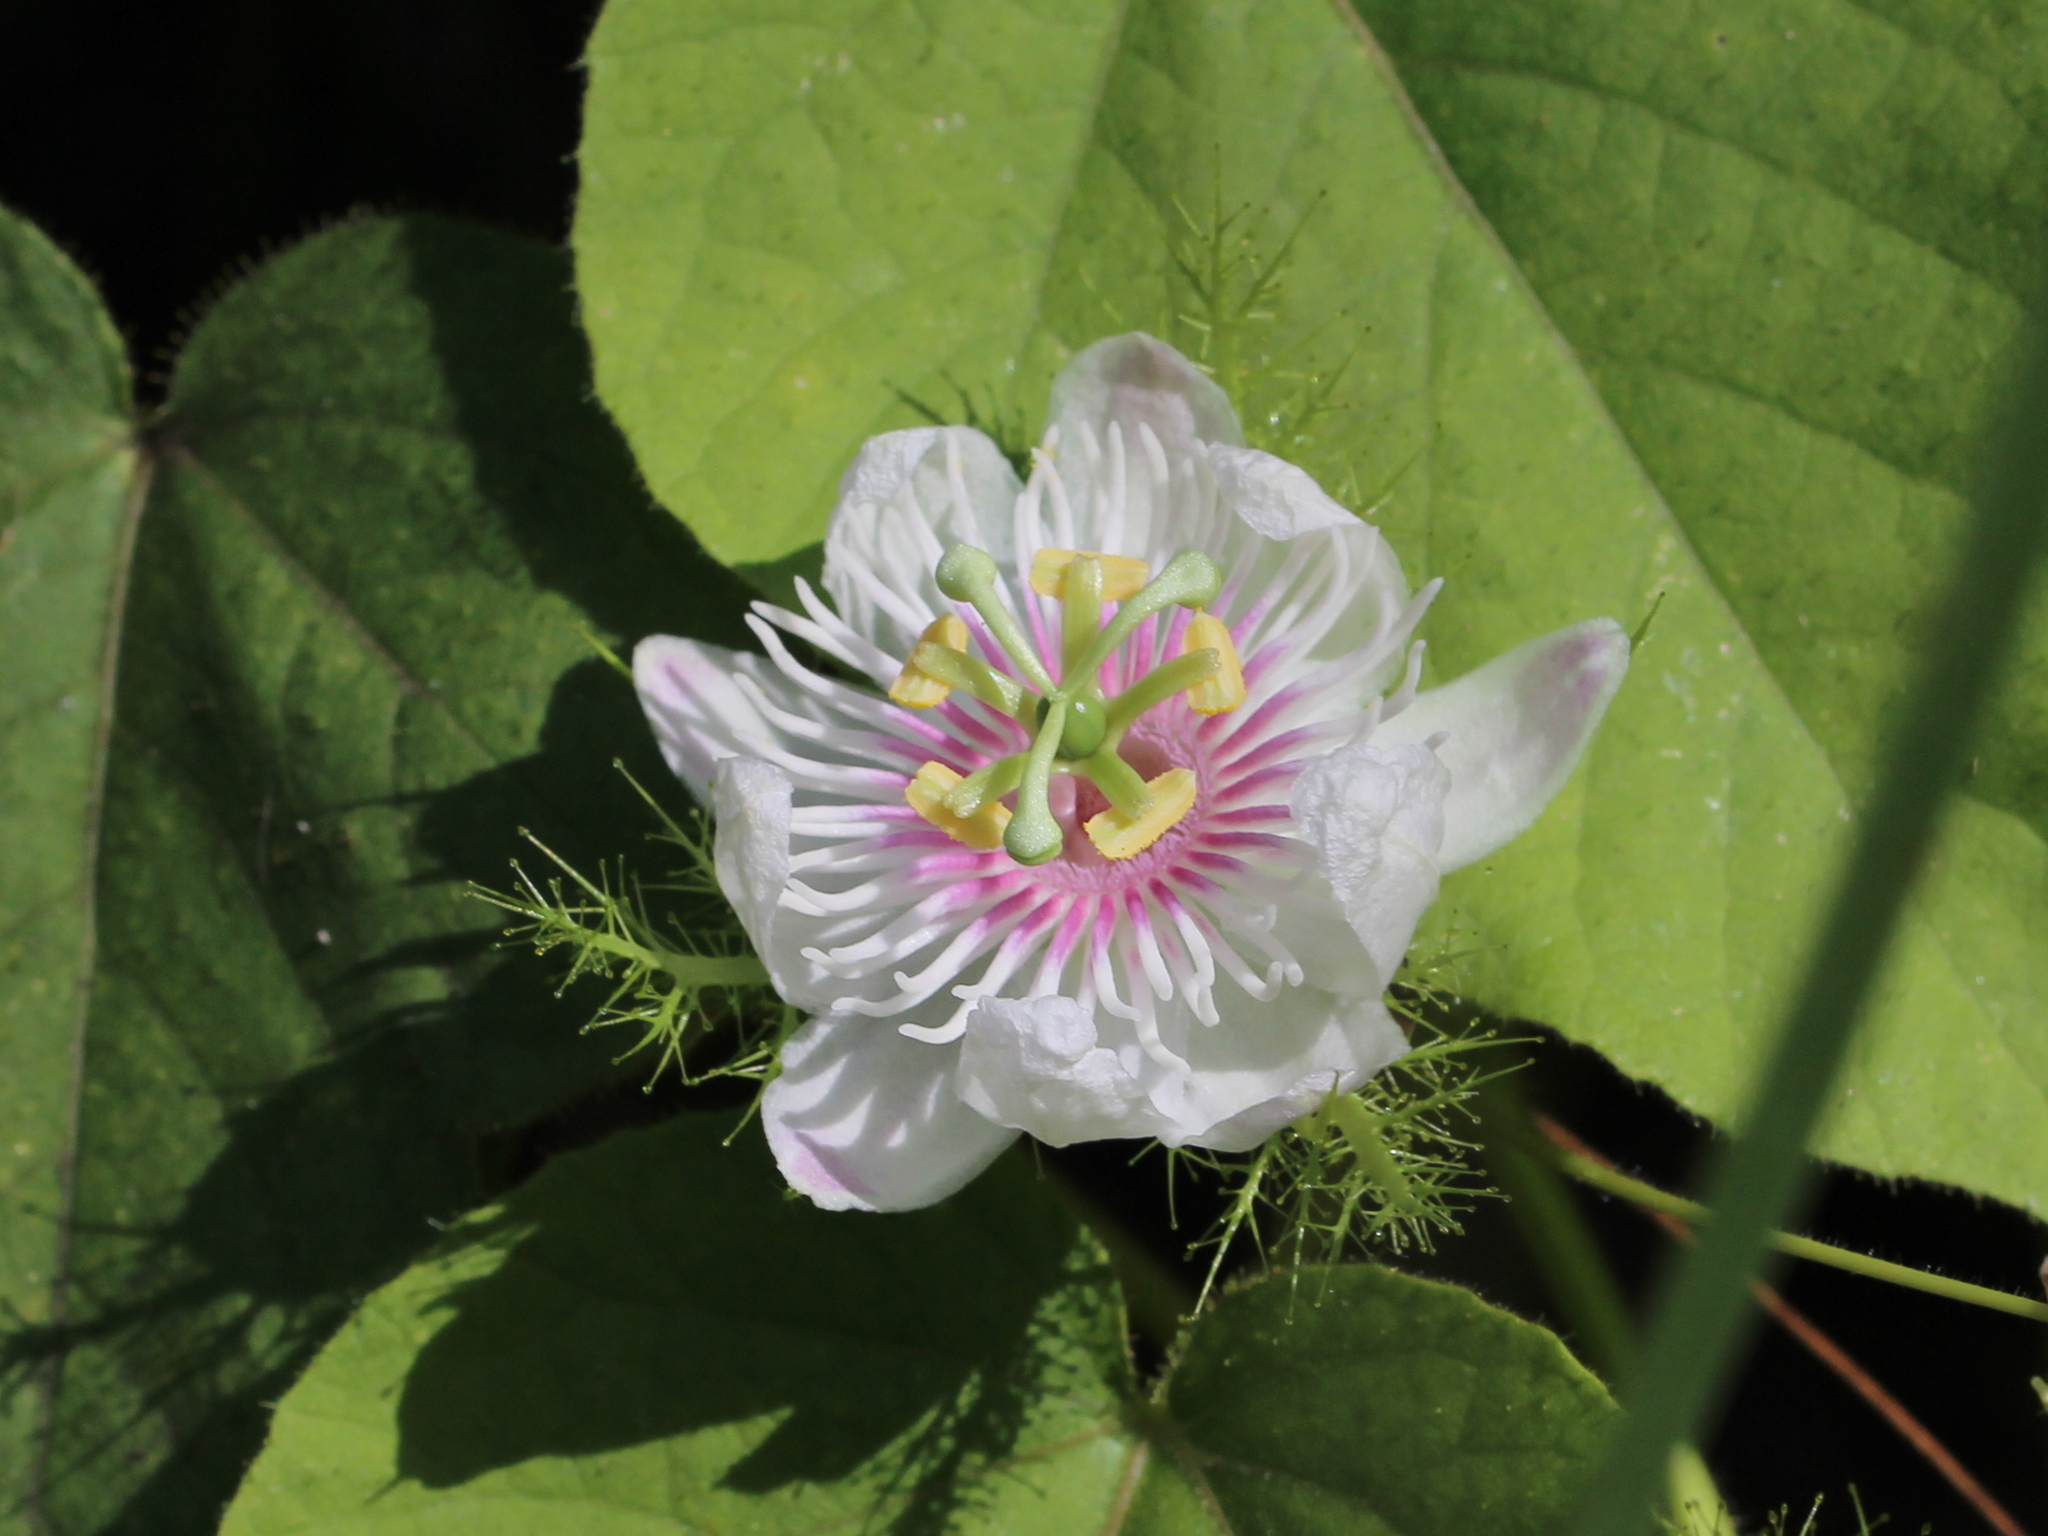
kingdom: Plantae
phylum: Tracheophyta
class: Magnoliopsida
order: Malpighiales
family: Passifloraceae
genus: Passiflora
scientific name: Passiflora vesicaria
